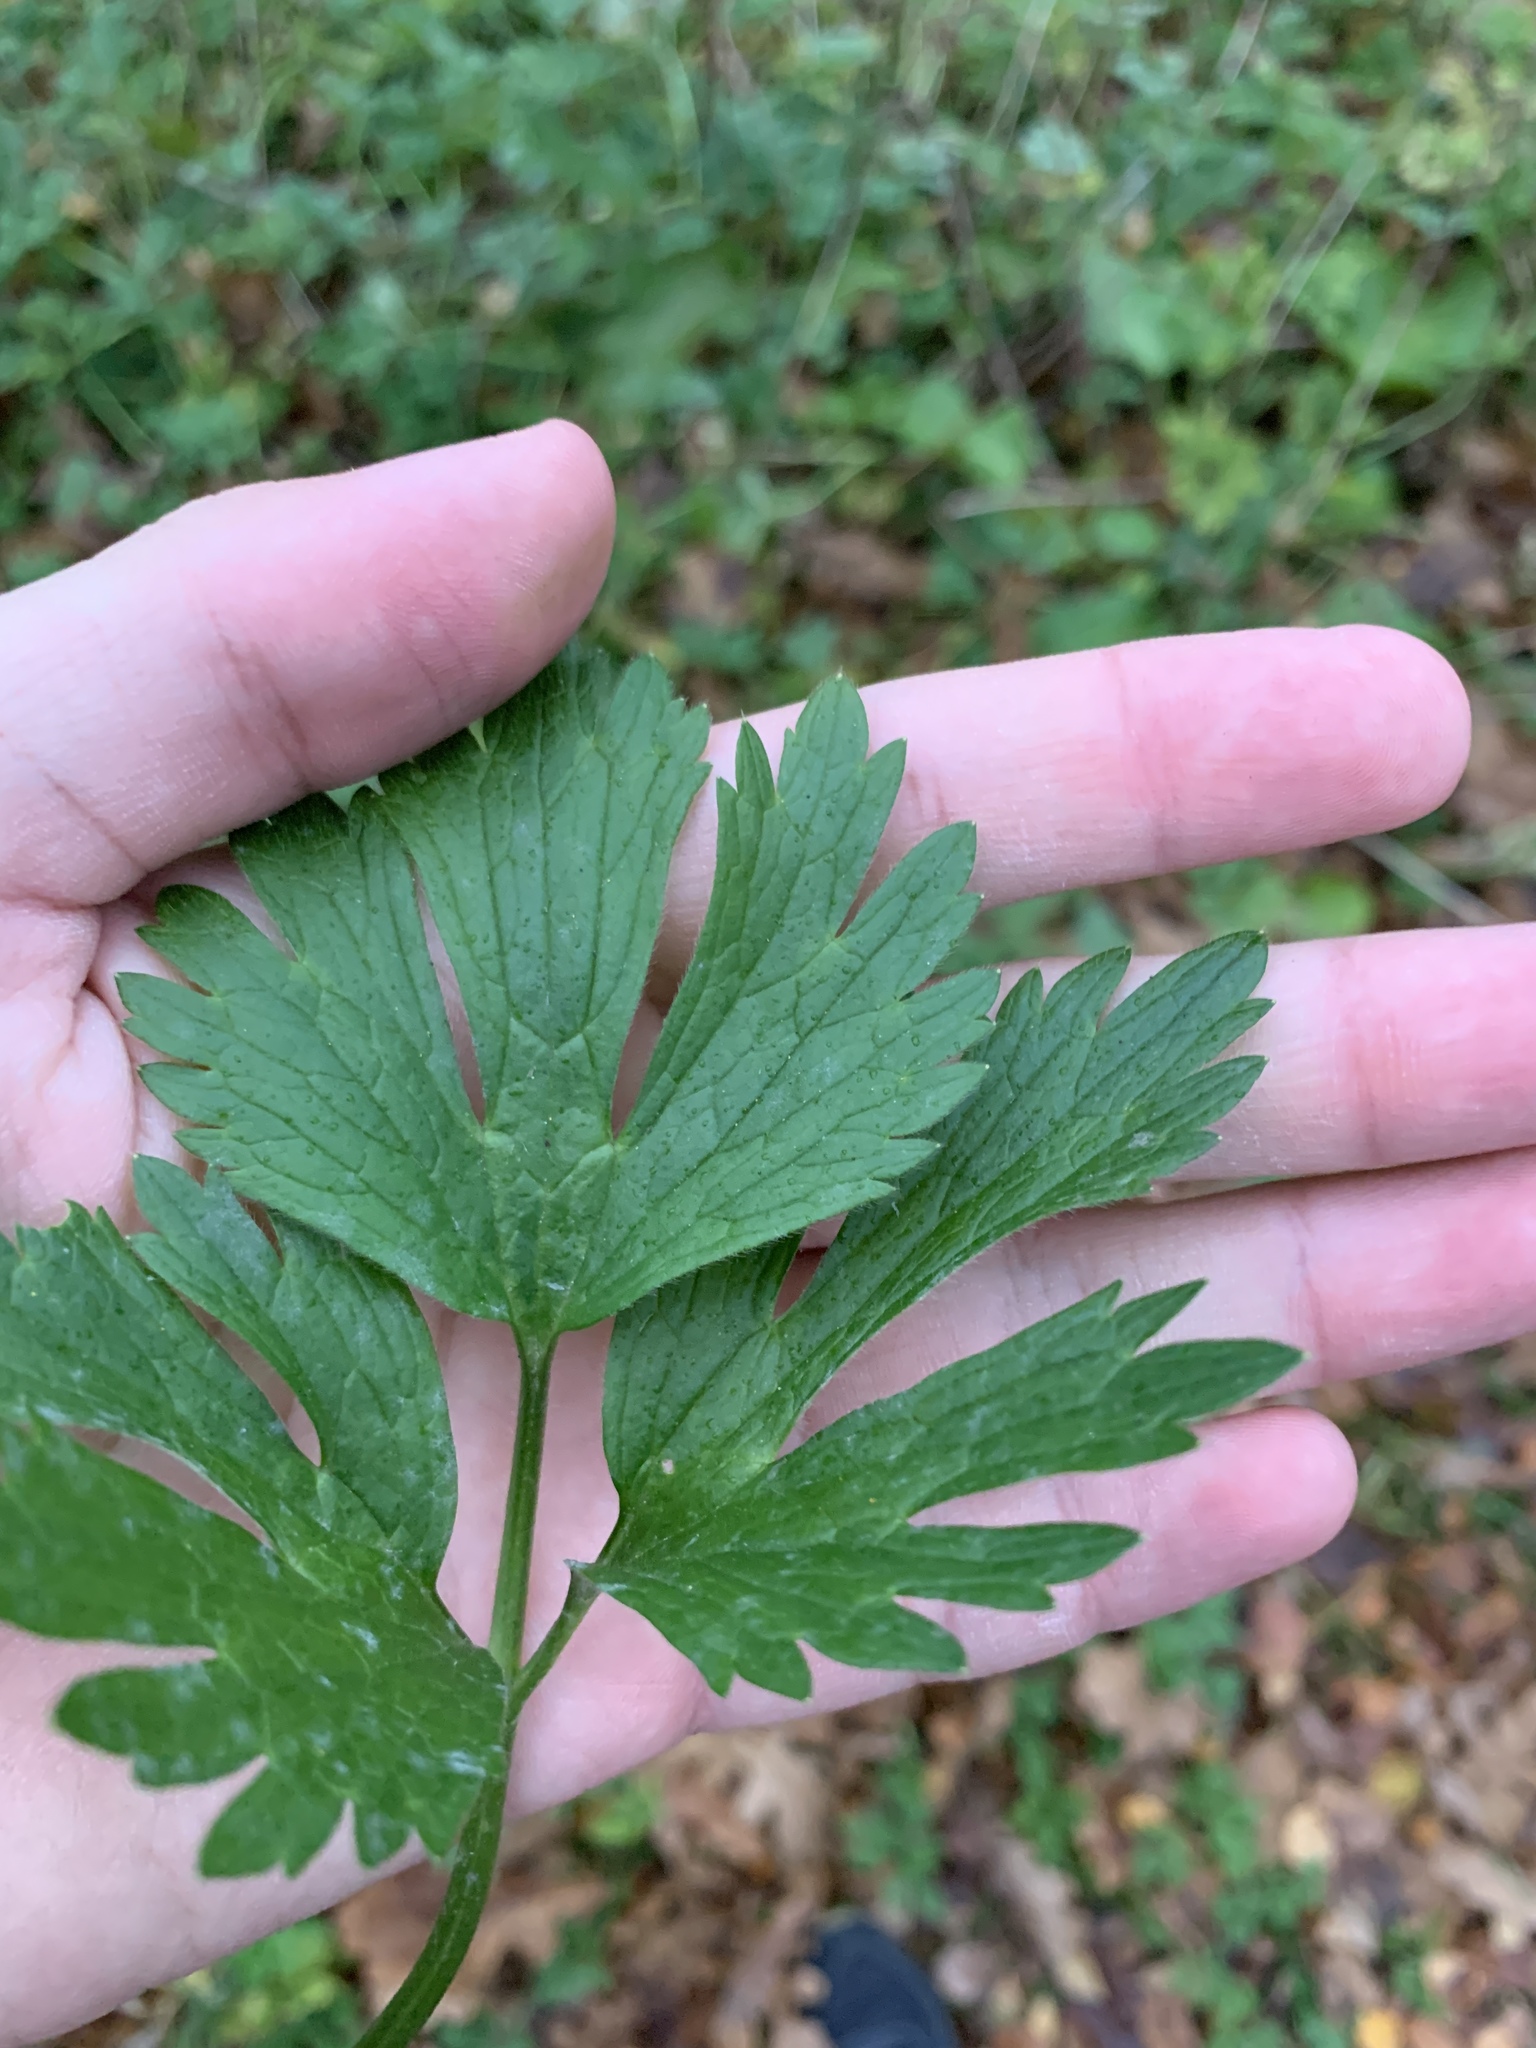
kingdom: Plantae
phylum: Tracheophyta
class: Magnoliopsida
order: Ranunculales
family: Ranunculaceae
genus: Ranunculus
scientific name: Ranunculus repens
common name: Creeping buttercup
